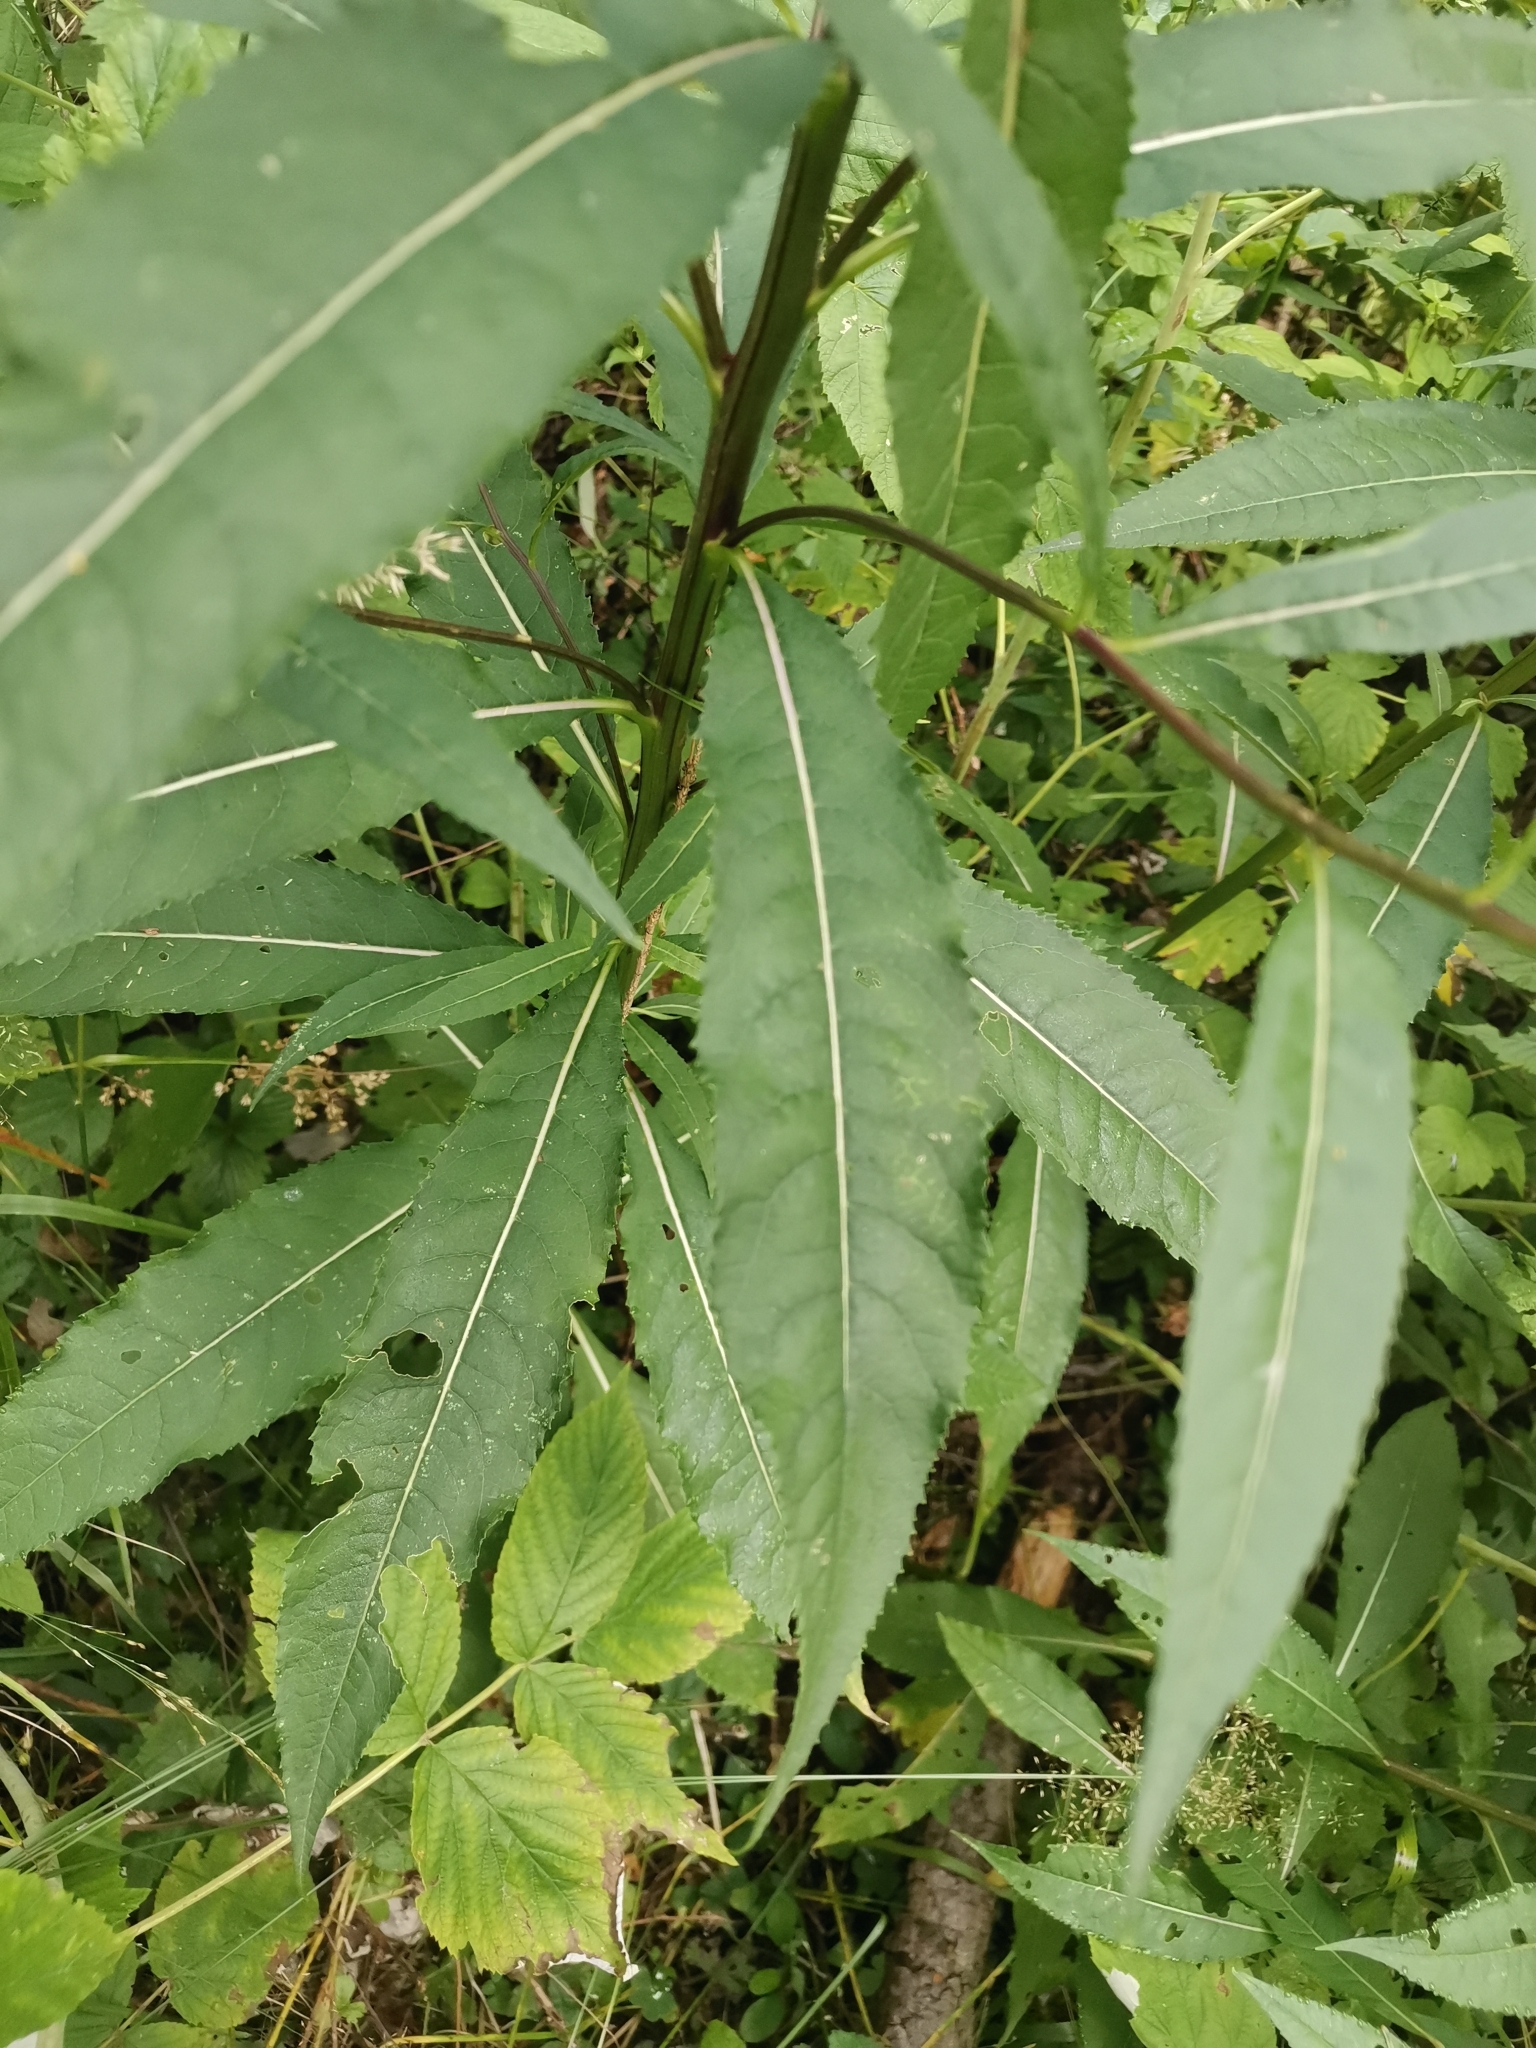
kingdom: Plantae
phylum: Tracheophyta
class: Magnoliopsida
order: Asterales
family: Asteraceae
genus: Senecio
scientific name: Senecio ovatus
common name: Wood ragwort
